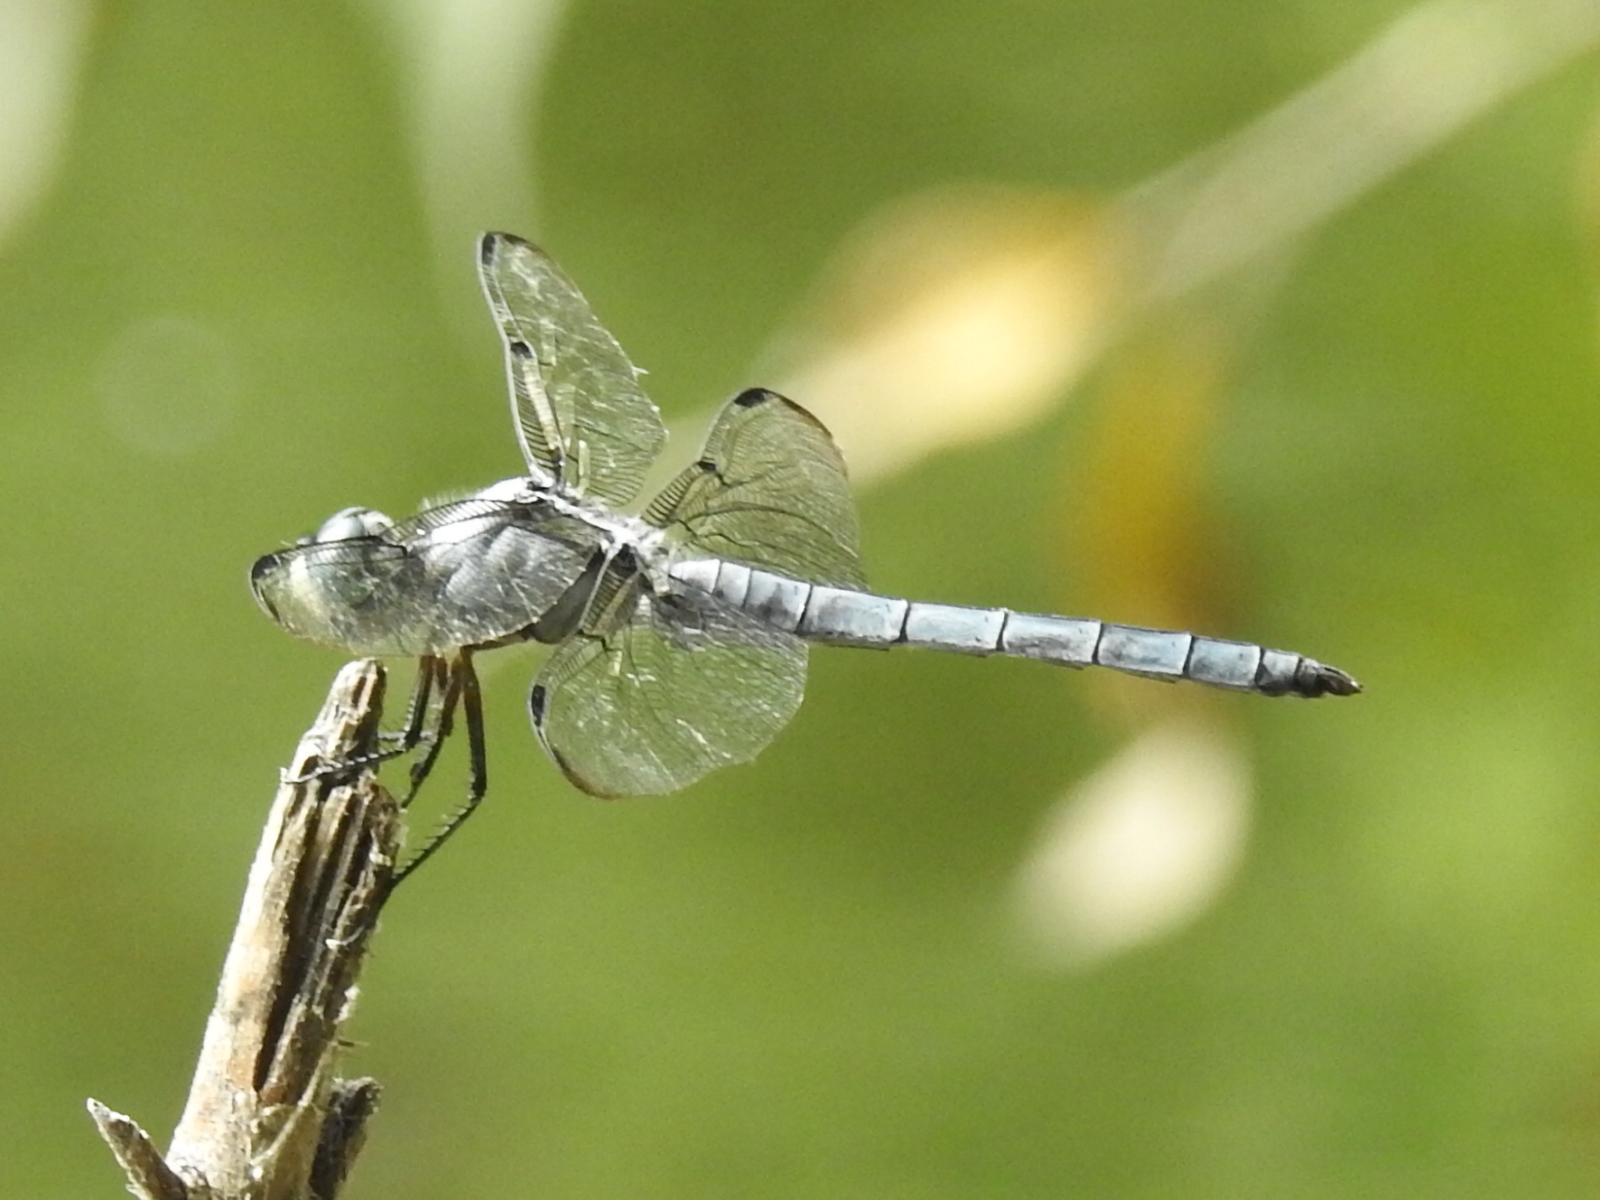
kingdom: Animalia
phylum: Arthropoda
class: Insecta
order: Odonata
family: Libellulidae
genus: Libellula
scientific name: Libellula vibrans
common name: Great blue skimmer
